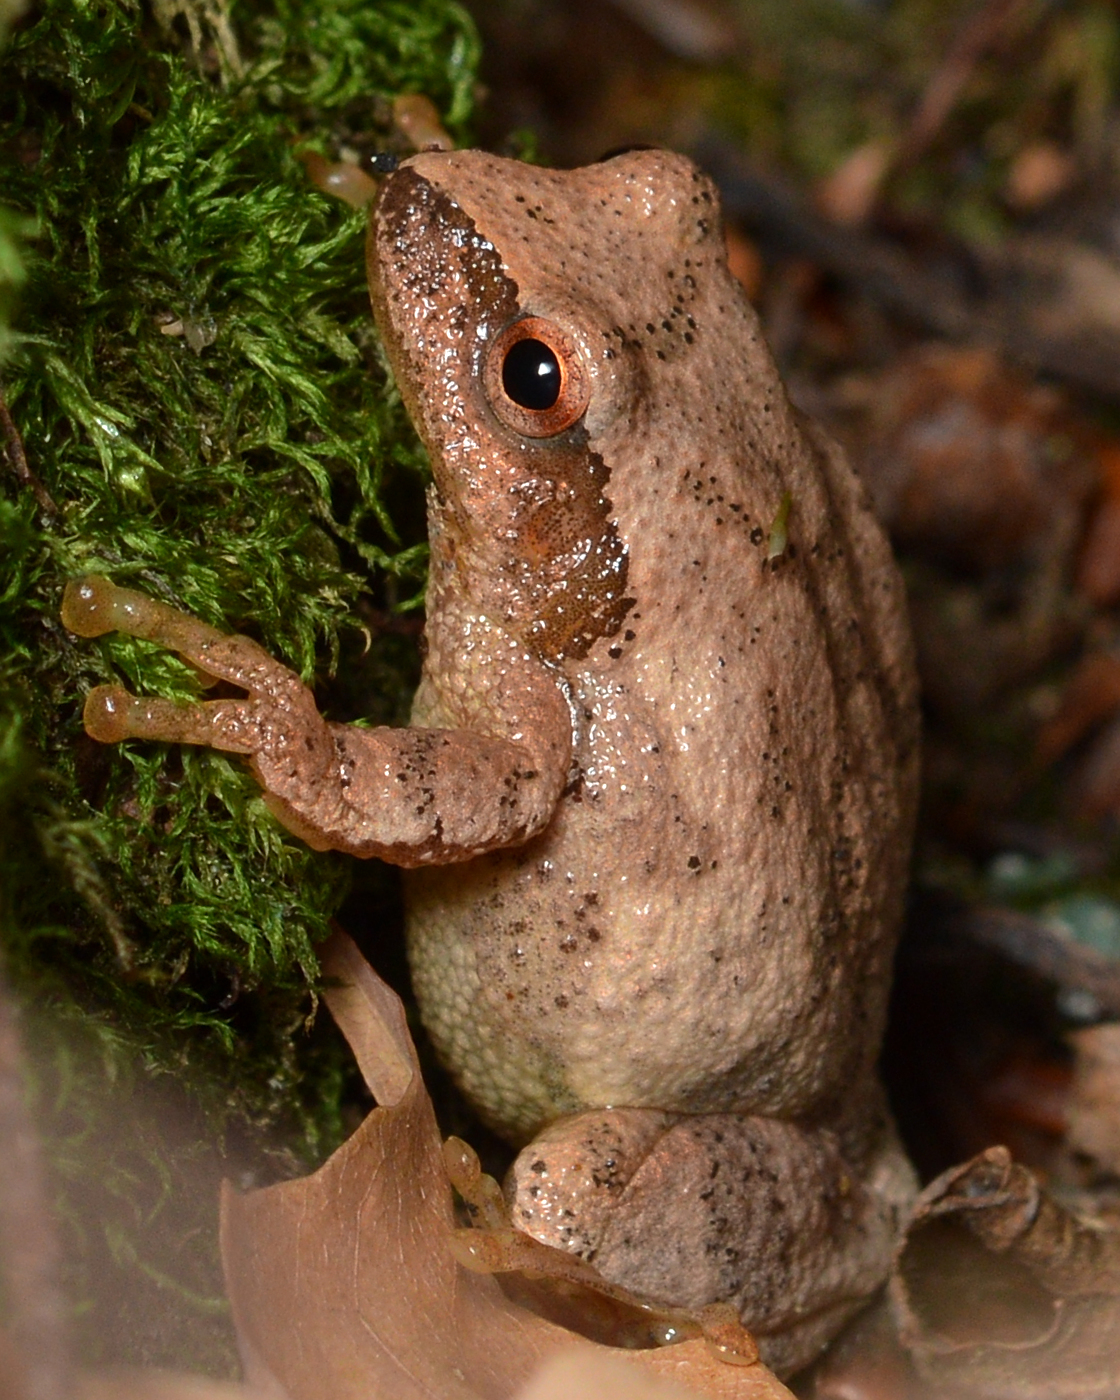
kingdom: Animalia
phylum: Chordata
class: Amphibia
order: Anura
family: Hylidae
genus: Pseudacris
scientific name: Pseudacris crucifer
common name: Spring peeper
